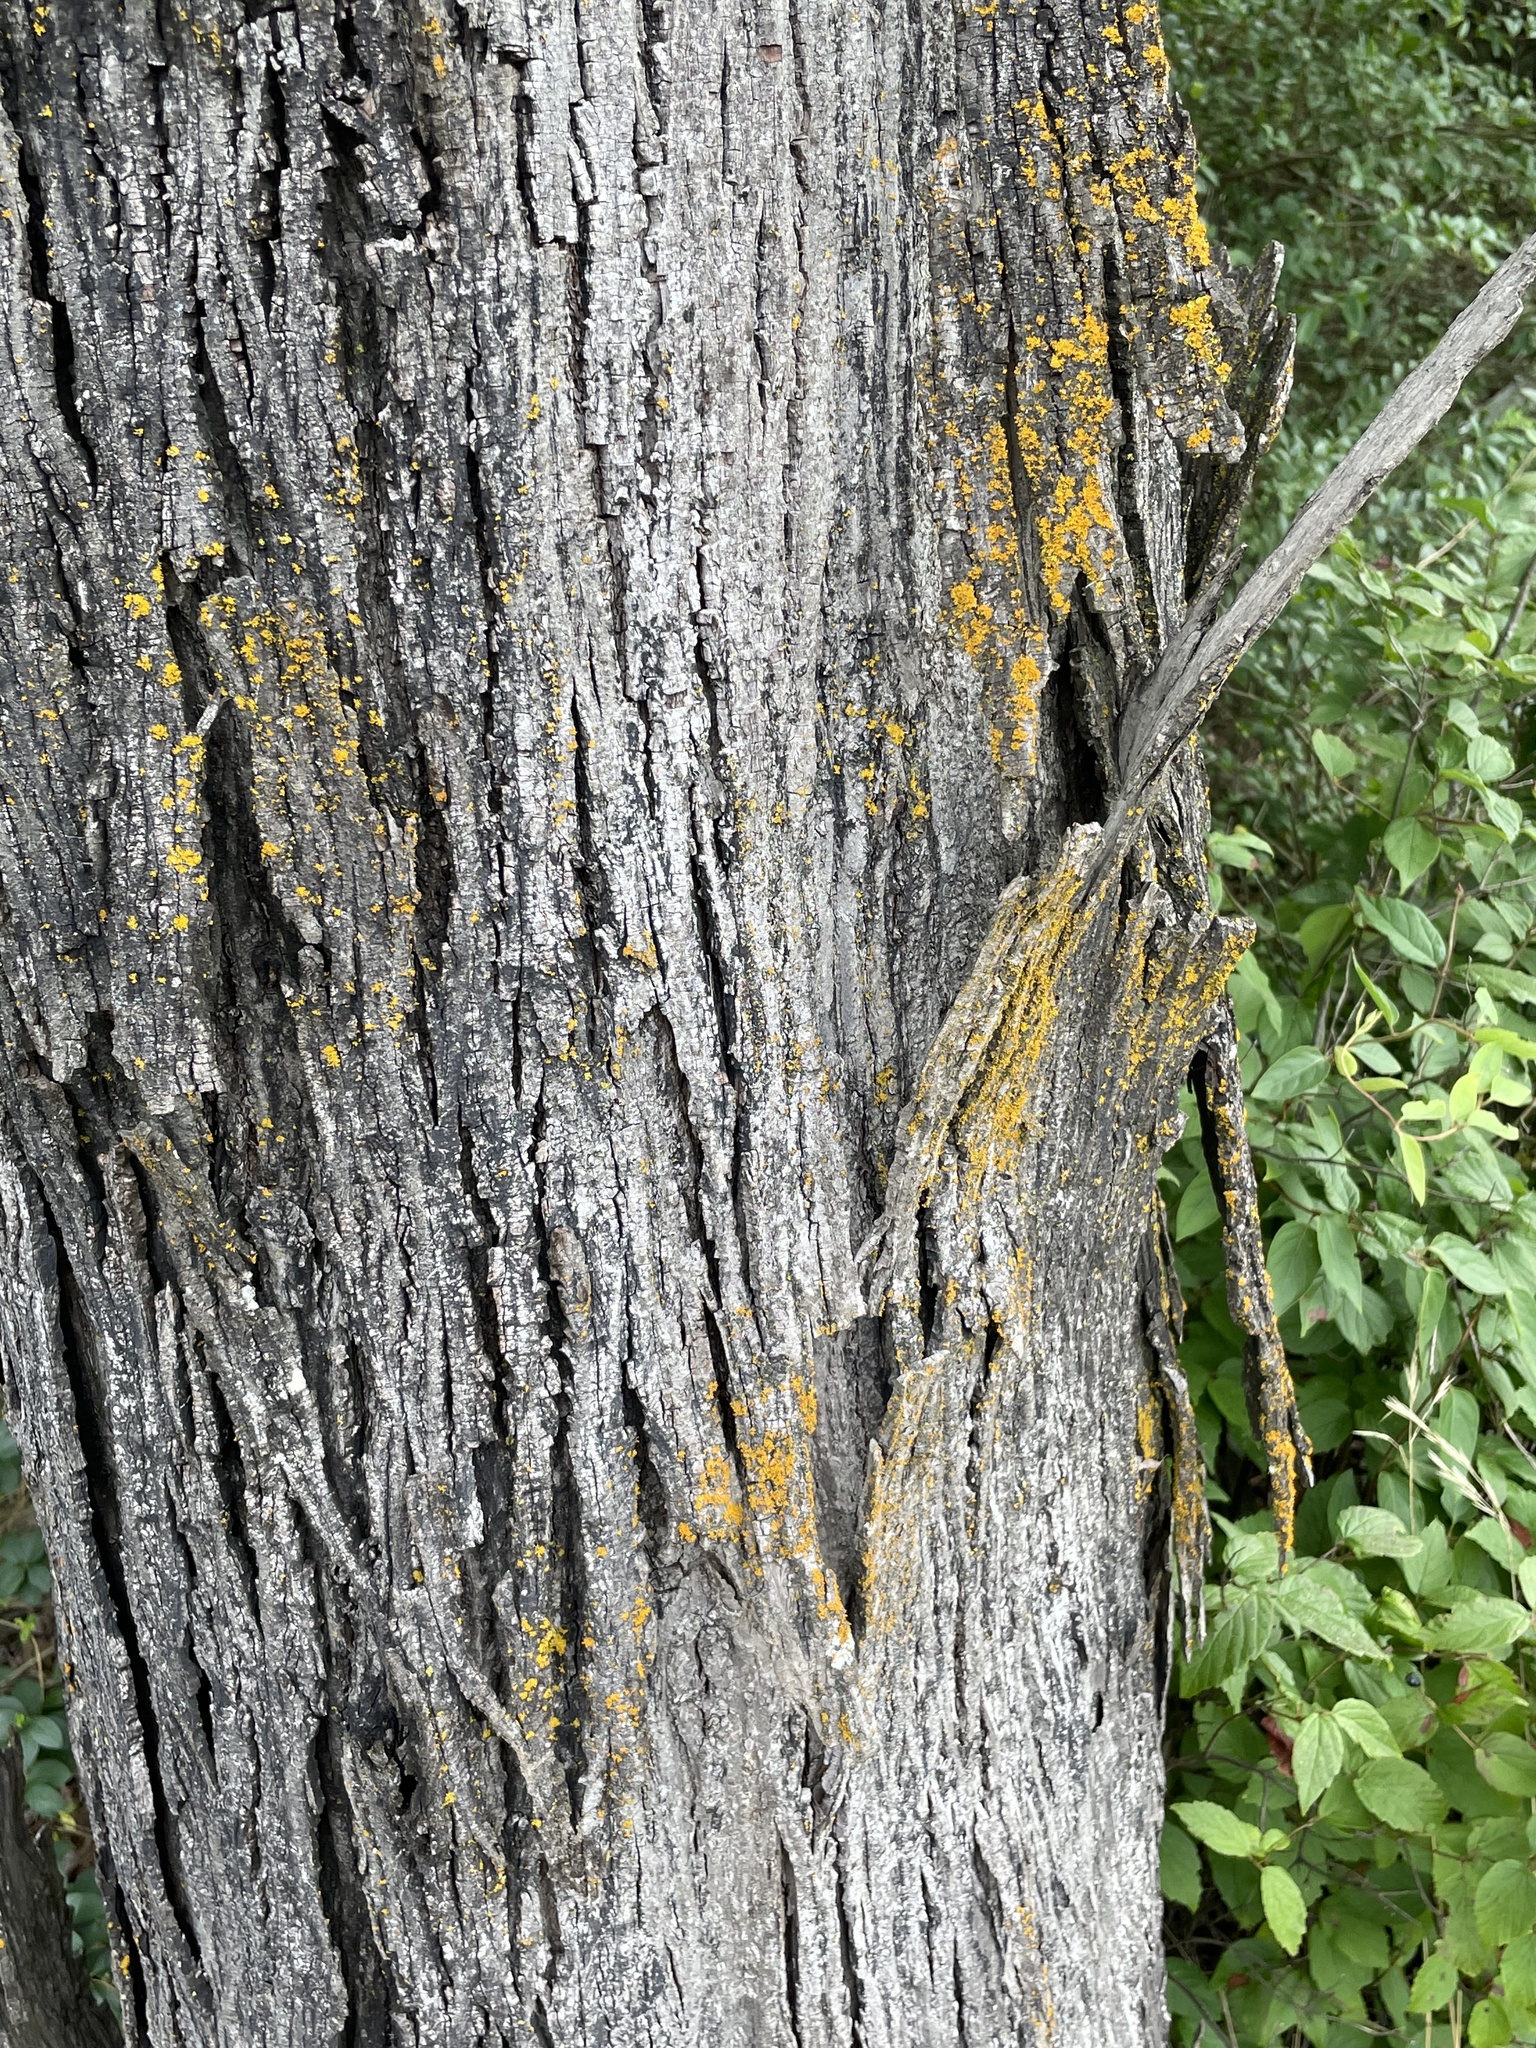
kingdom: Fungi
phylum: Ascomycota
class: Lecanoromycetes
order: Teloschistales
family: Teloschistaceae
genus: Gallowayella
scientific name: Gallowayella weberi
